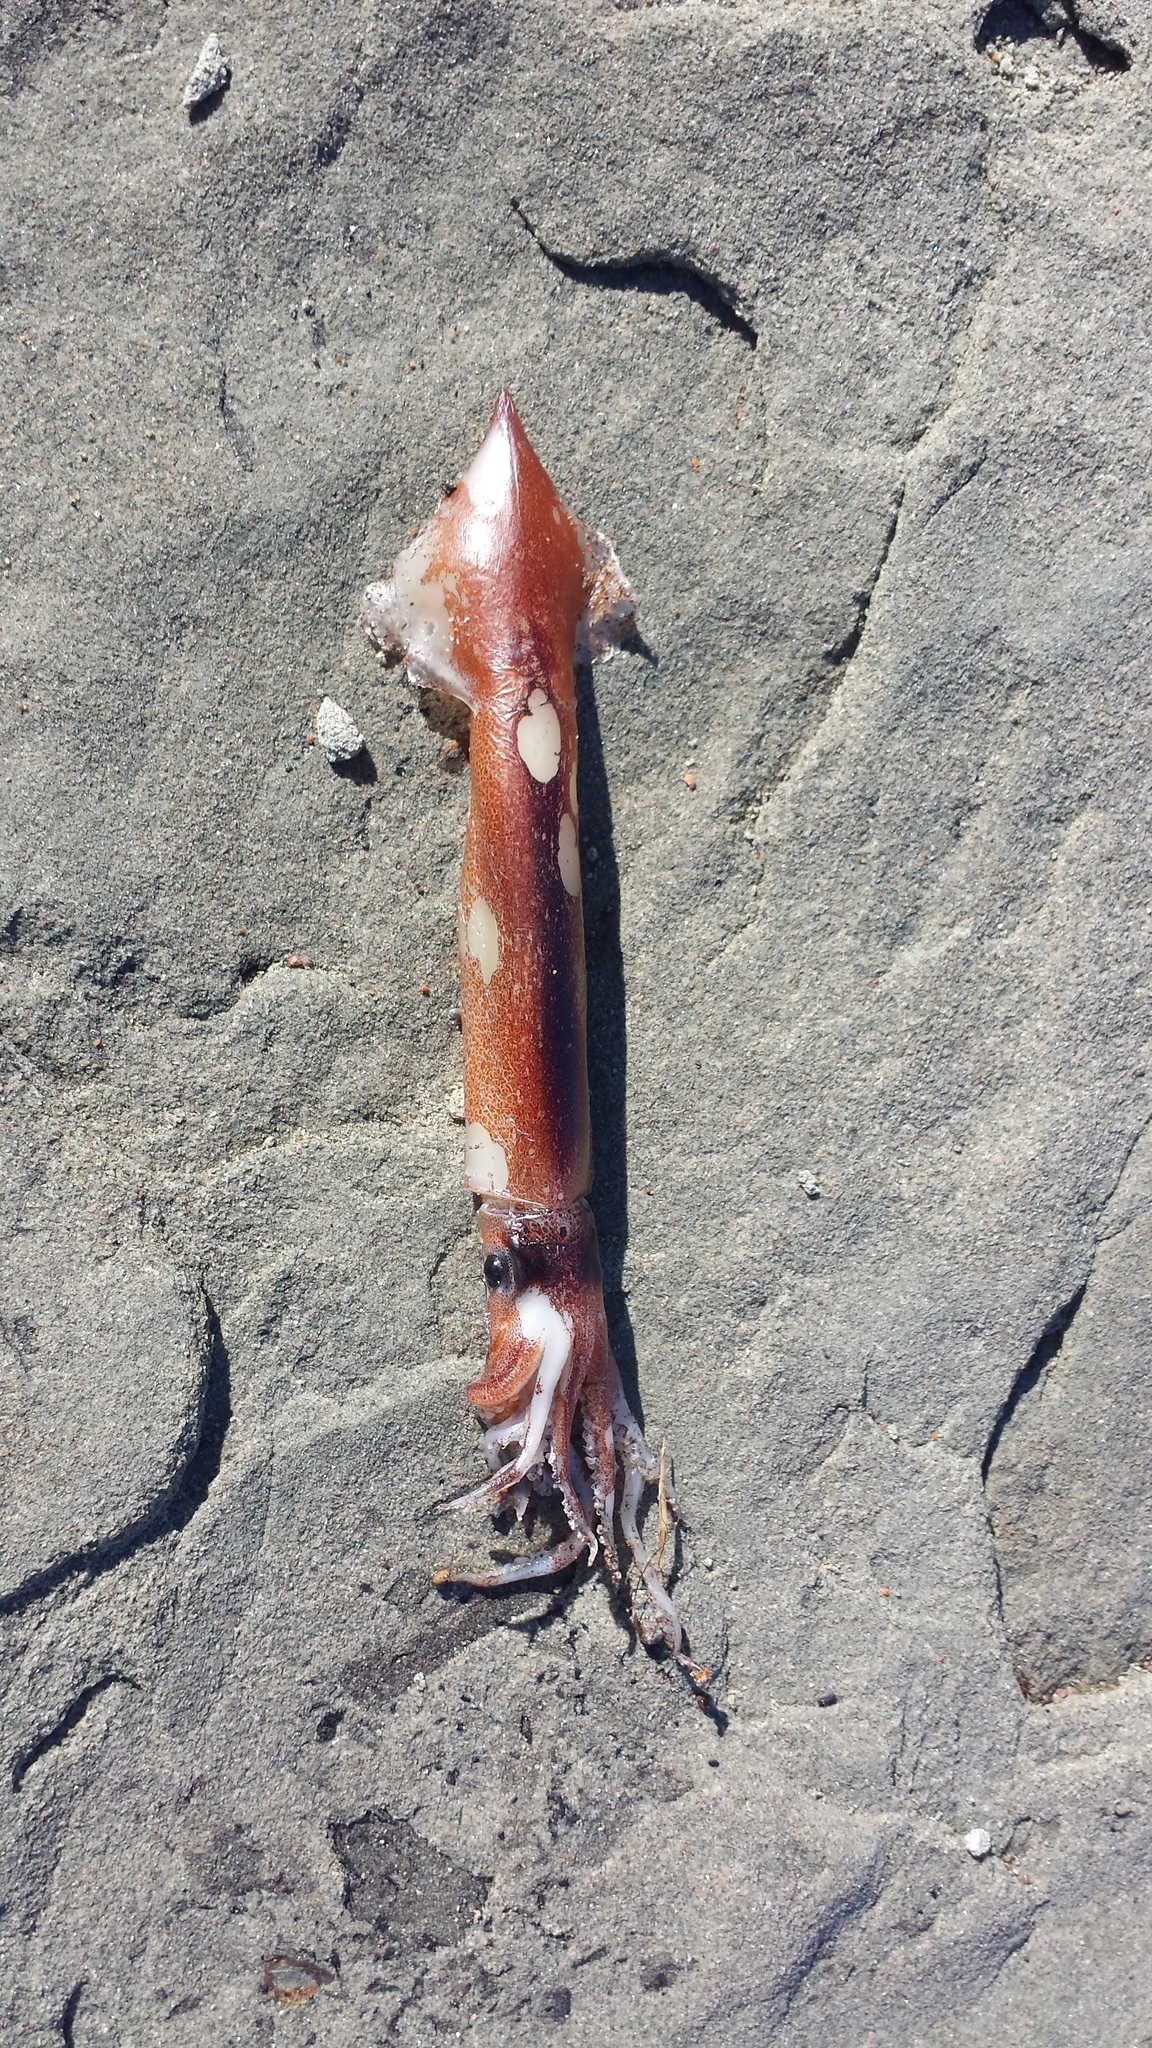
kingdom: Animalia
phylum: Mollusca
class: Cephalopoda
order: Oegopsida
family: Ommastrephidae
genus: Illex
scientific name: Illex illecebrosus
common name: Boreal squid
